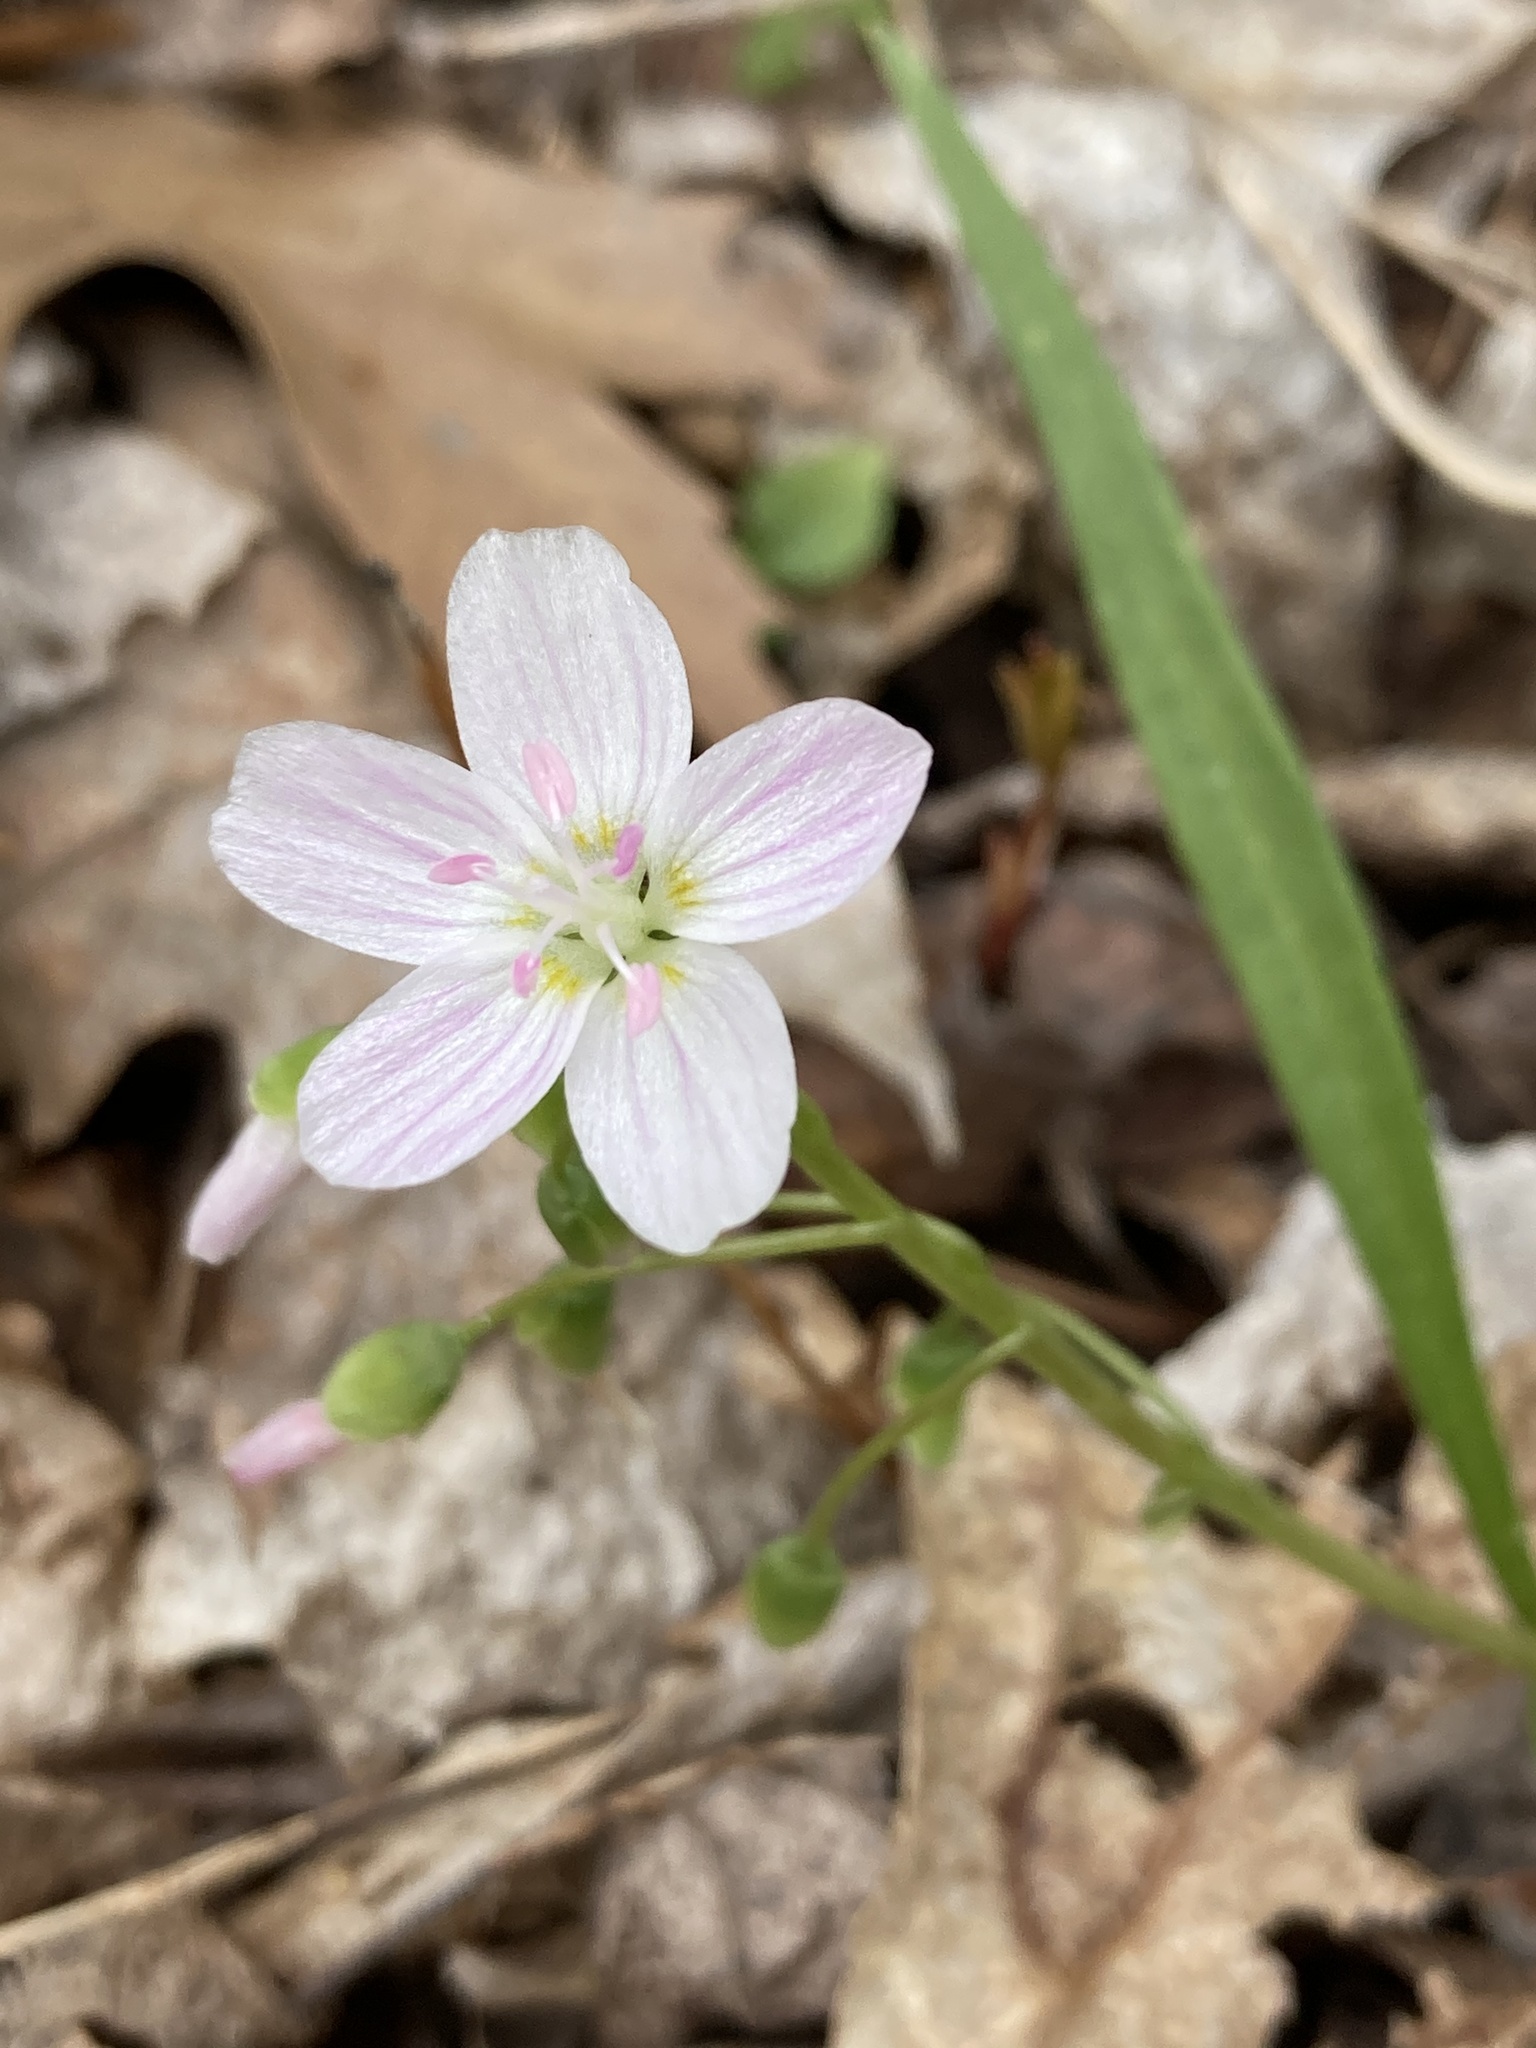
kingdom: Plantae
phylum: Tracheophyta
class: Magnoliopsida
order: Caryophyllales
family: Montiaceae
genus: Claytonia
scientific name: Claytonia virginica
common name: Virginia springbeauty
